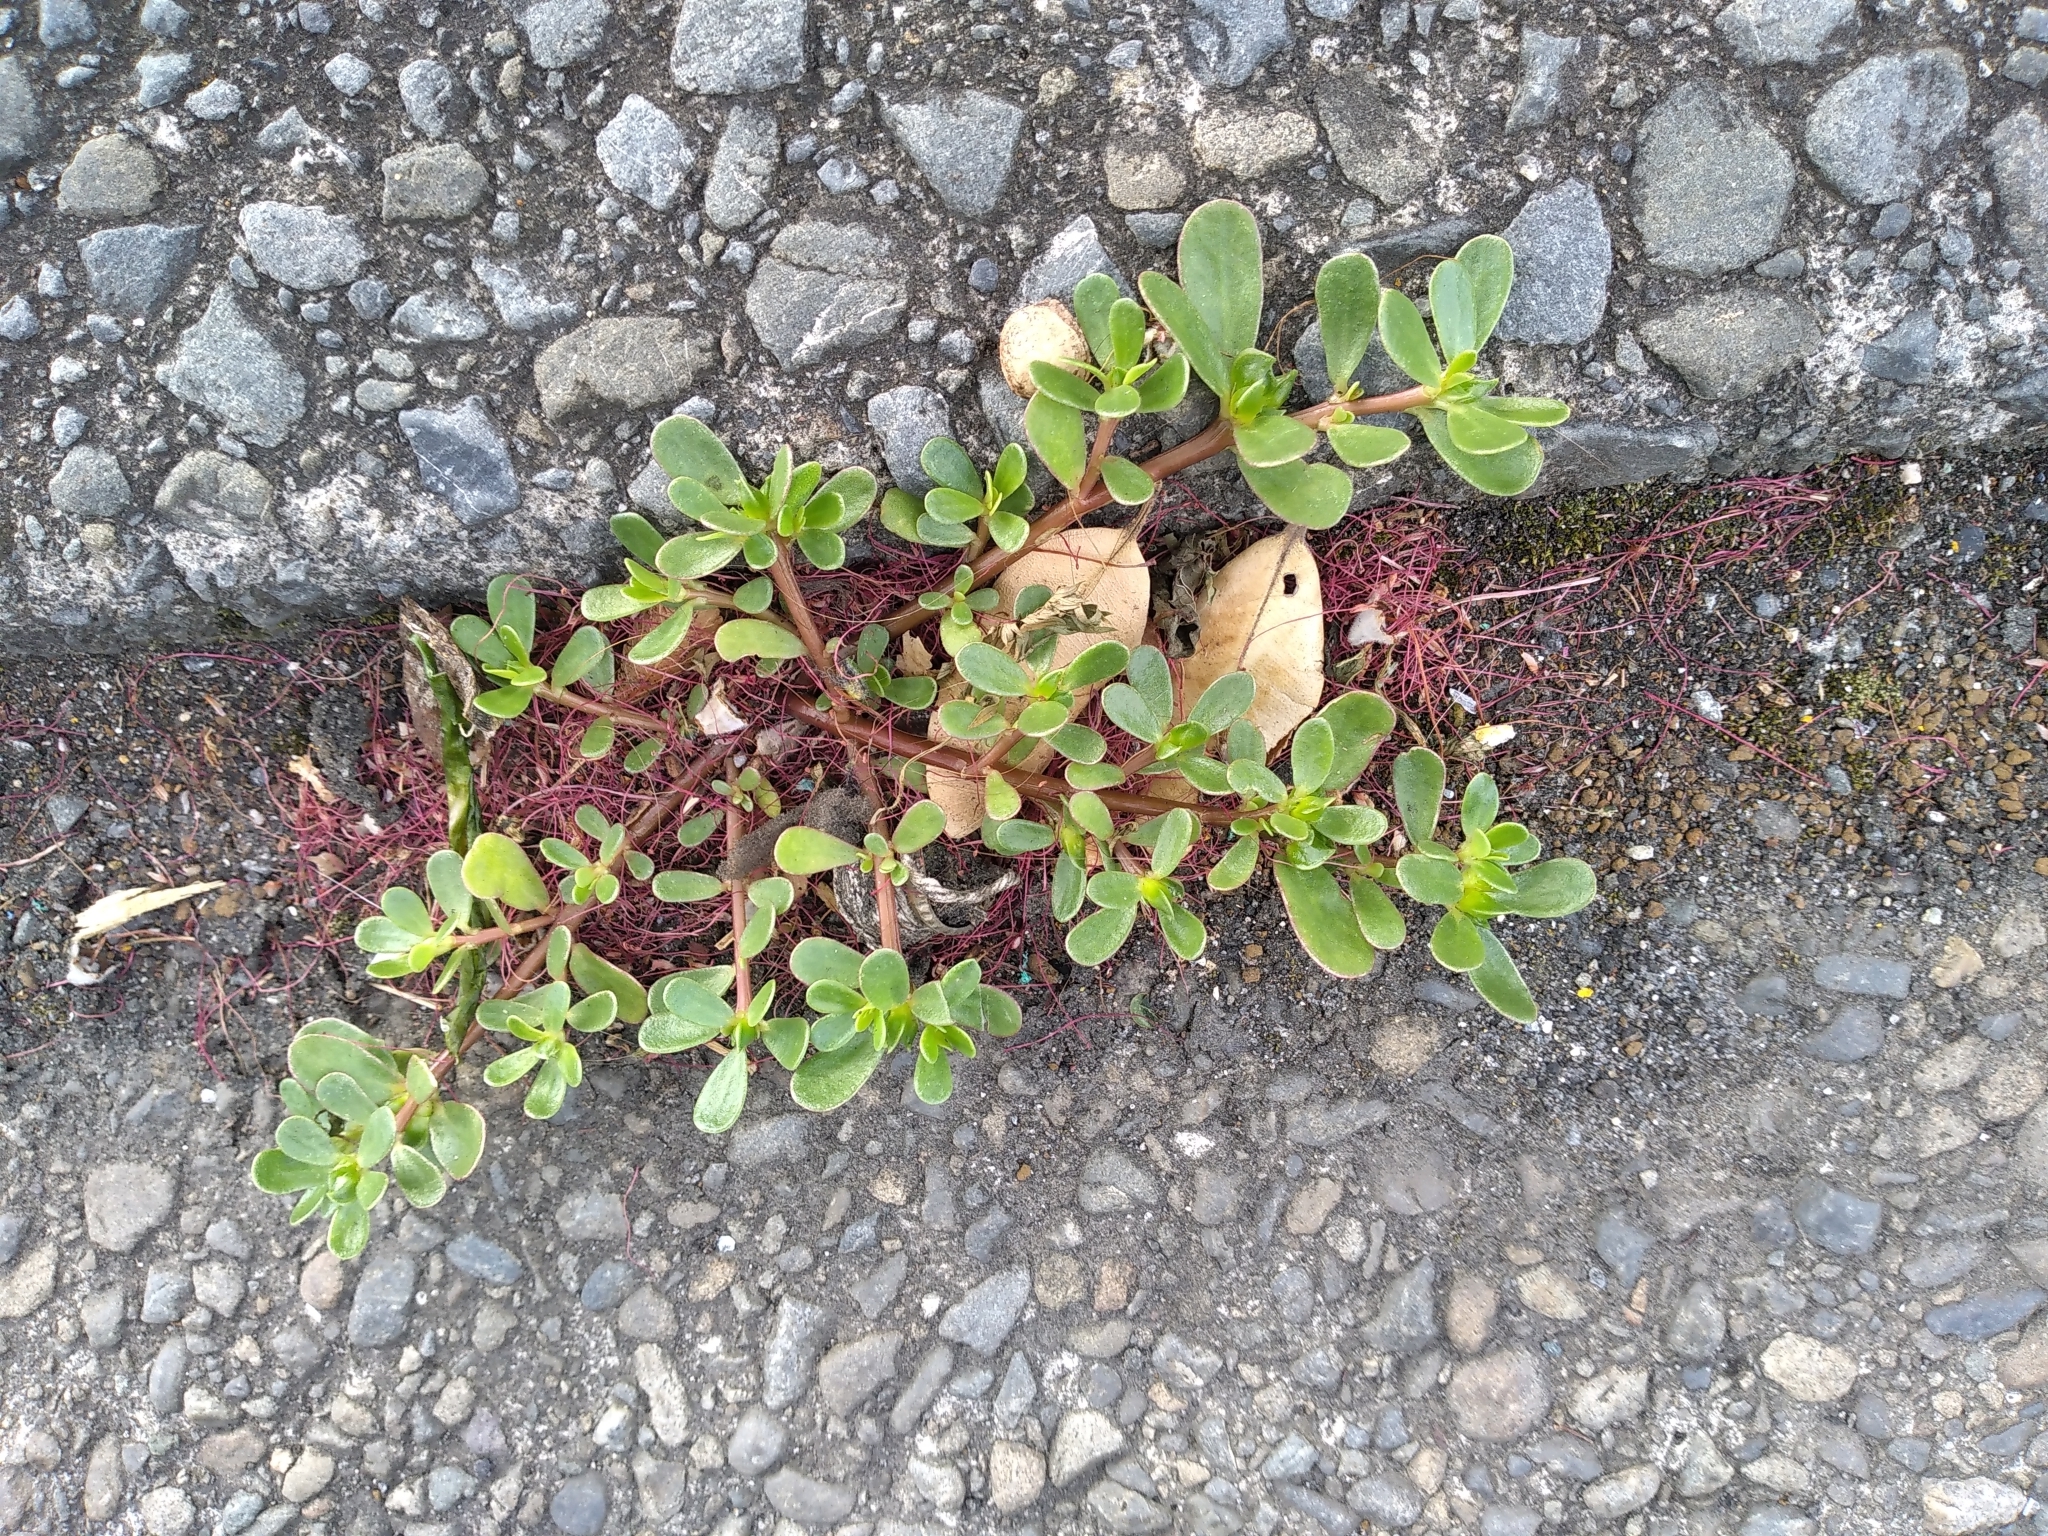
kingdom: Plantae
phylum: Tracheophyta
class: Magnoliopsida
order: Caryophyllales
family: Portulacaceae
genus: Portulaca
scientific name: Portulaca oleracea
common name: Common purslane
